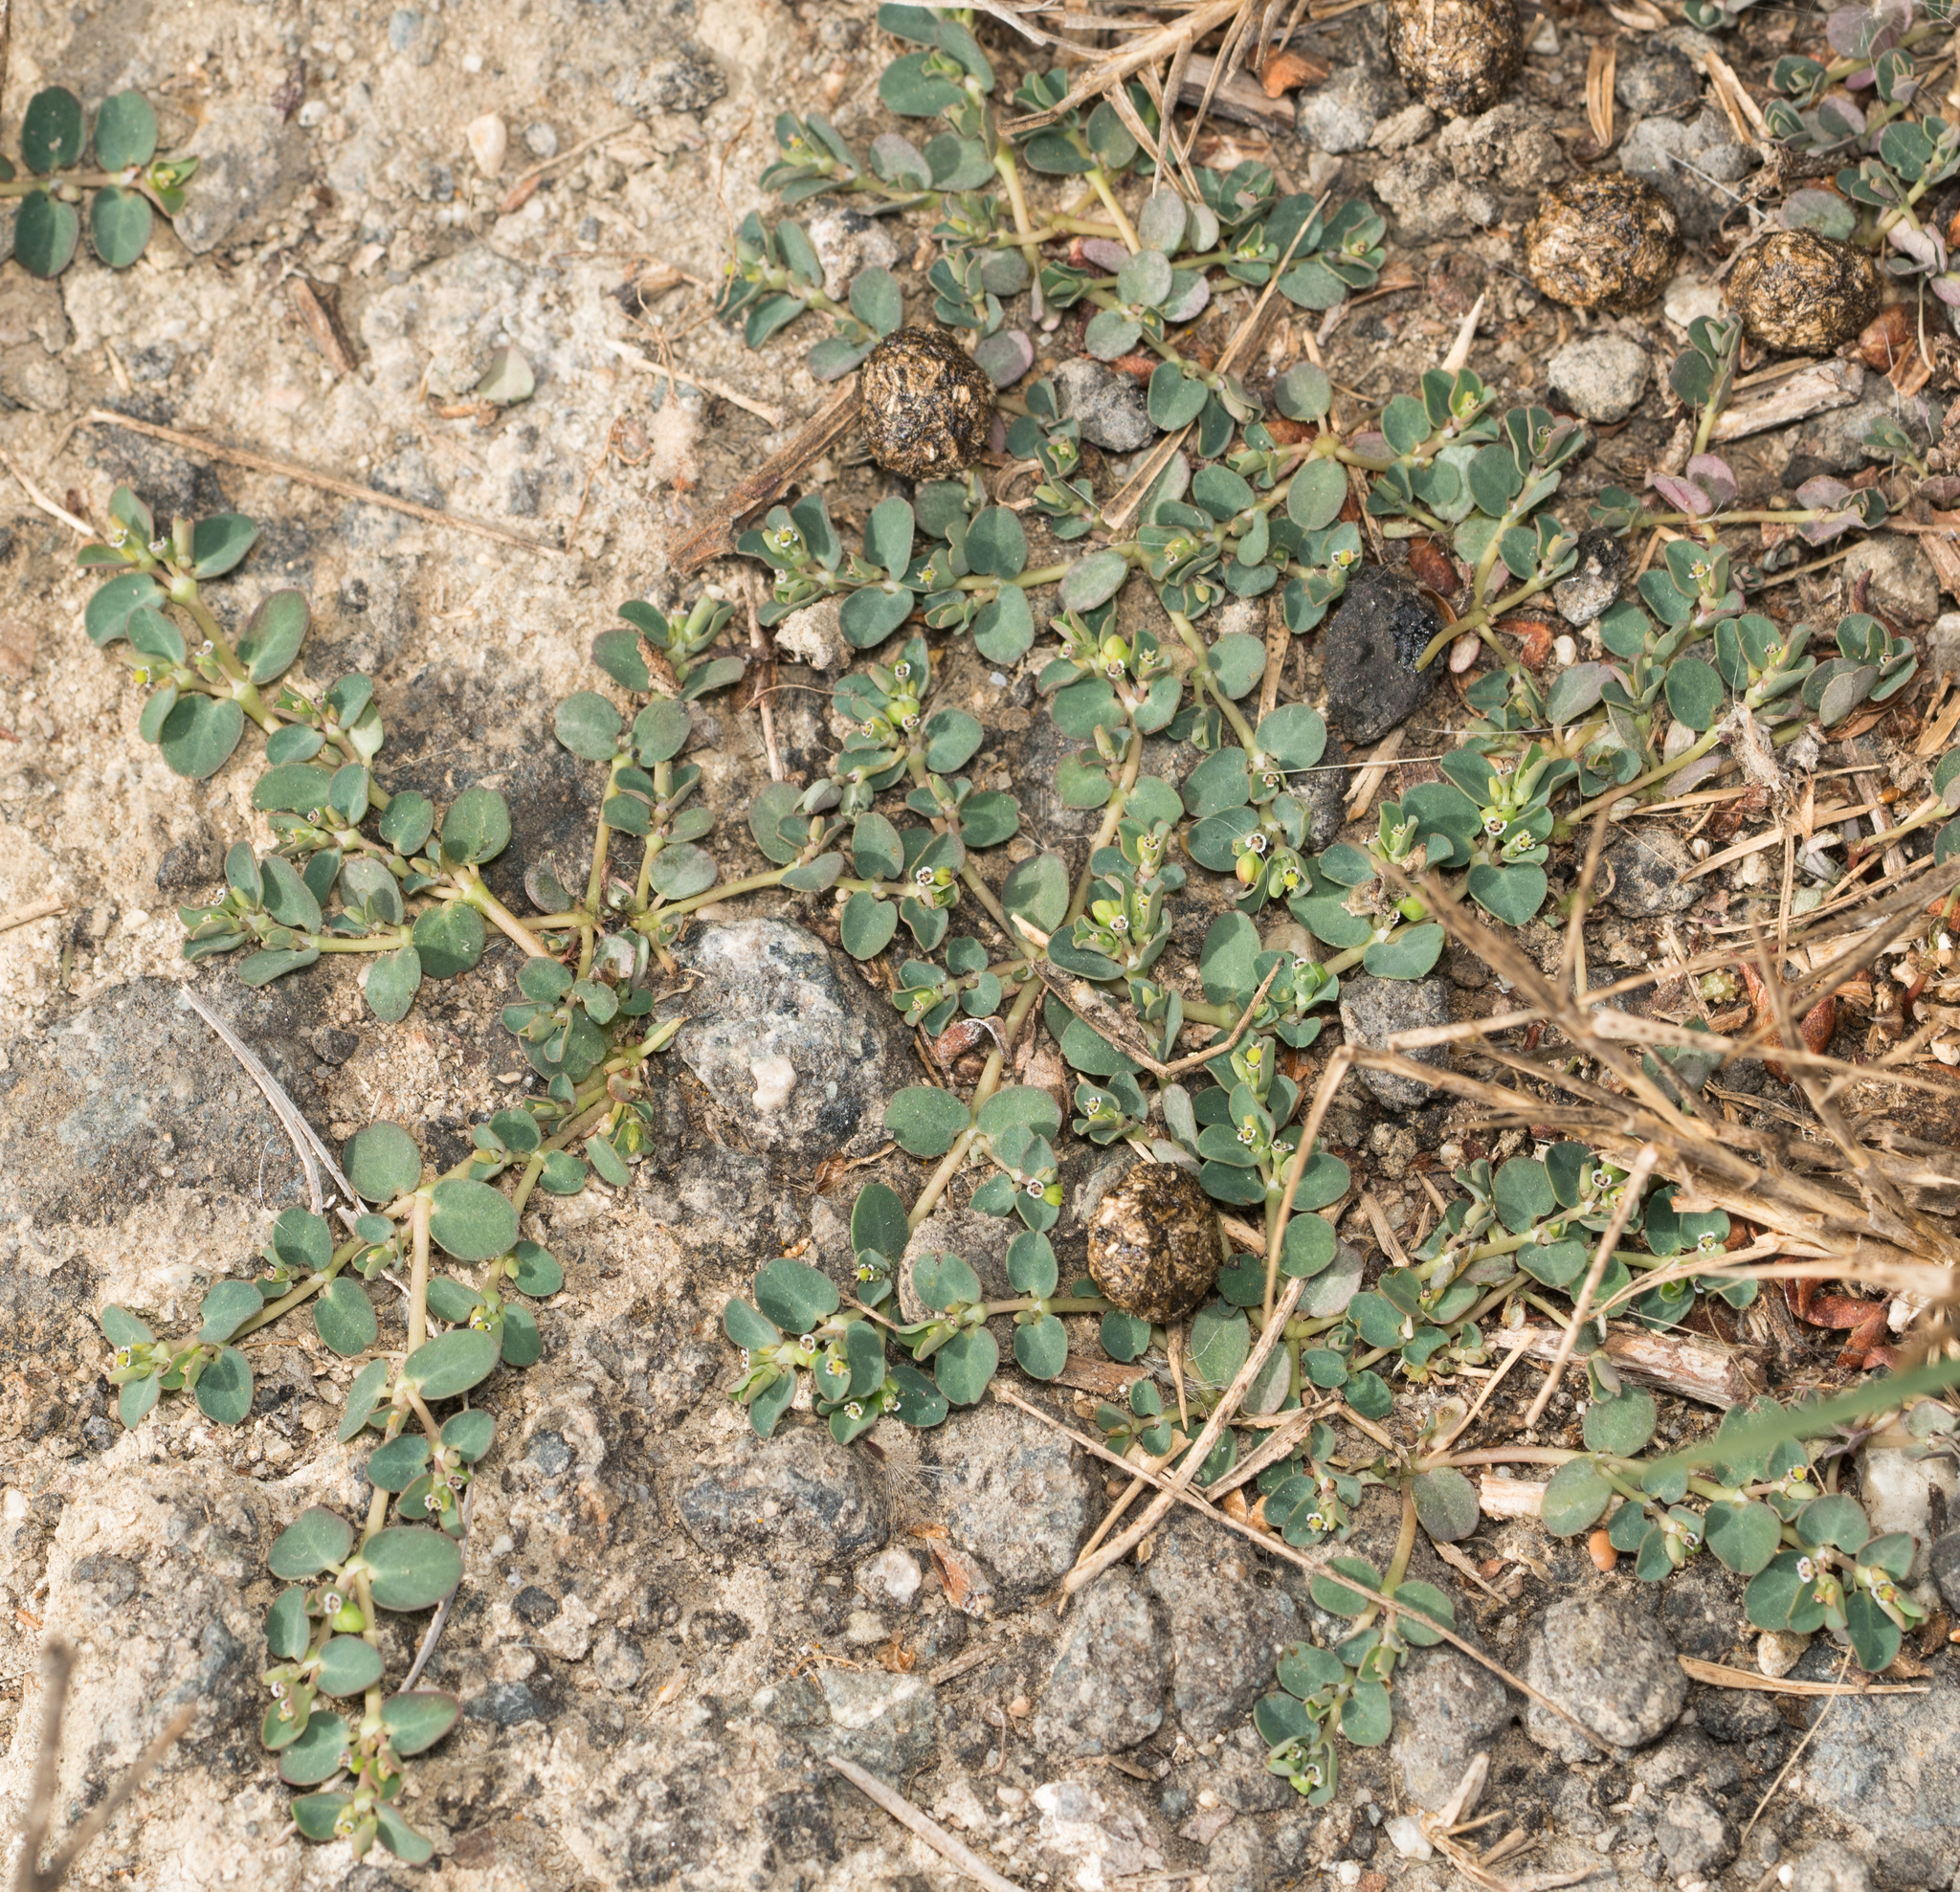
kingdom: Plantae
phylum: Tracheophyta
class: Magnoliopsida
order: Malpighiales
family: Euphorbiaceae
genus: Euphorbia
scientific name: Euphorbia serpens
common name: Matted sandmat
